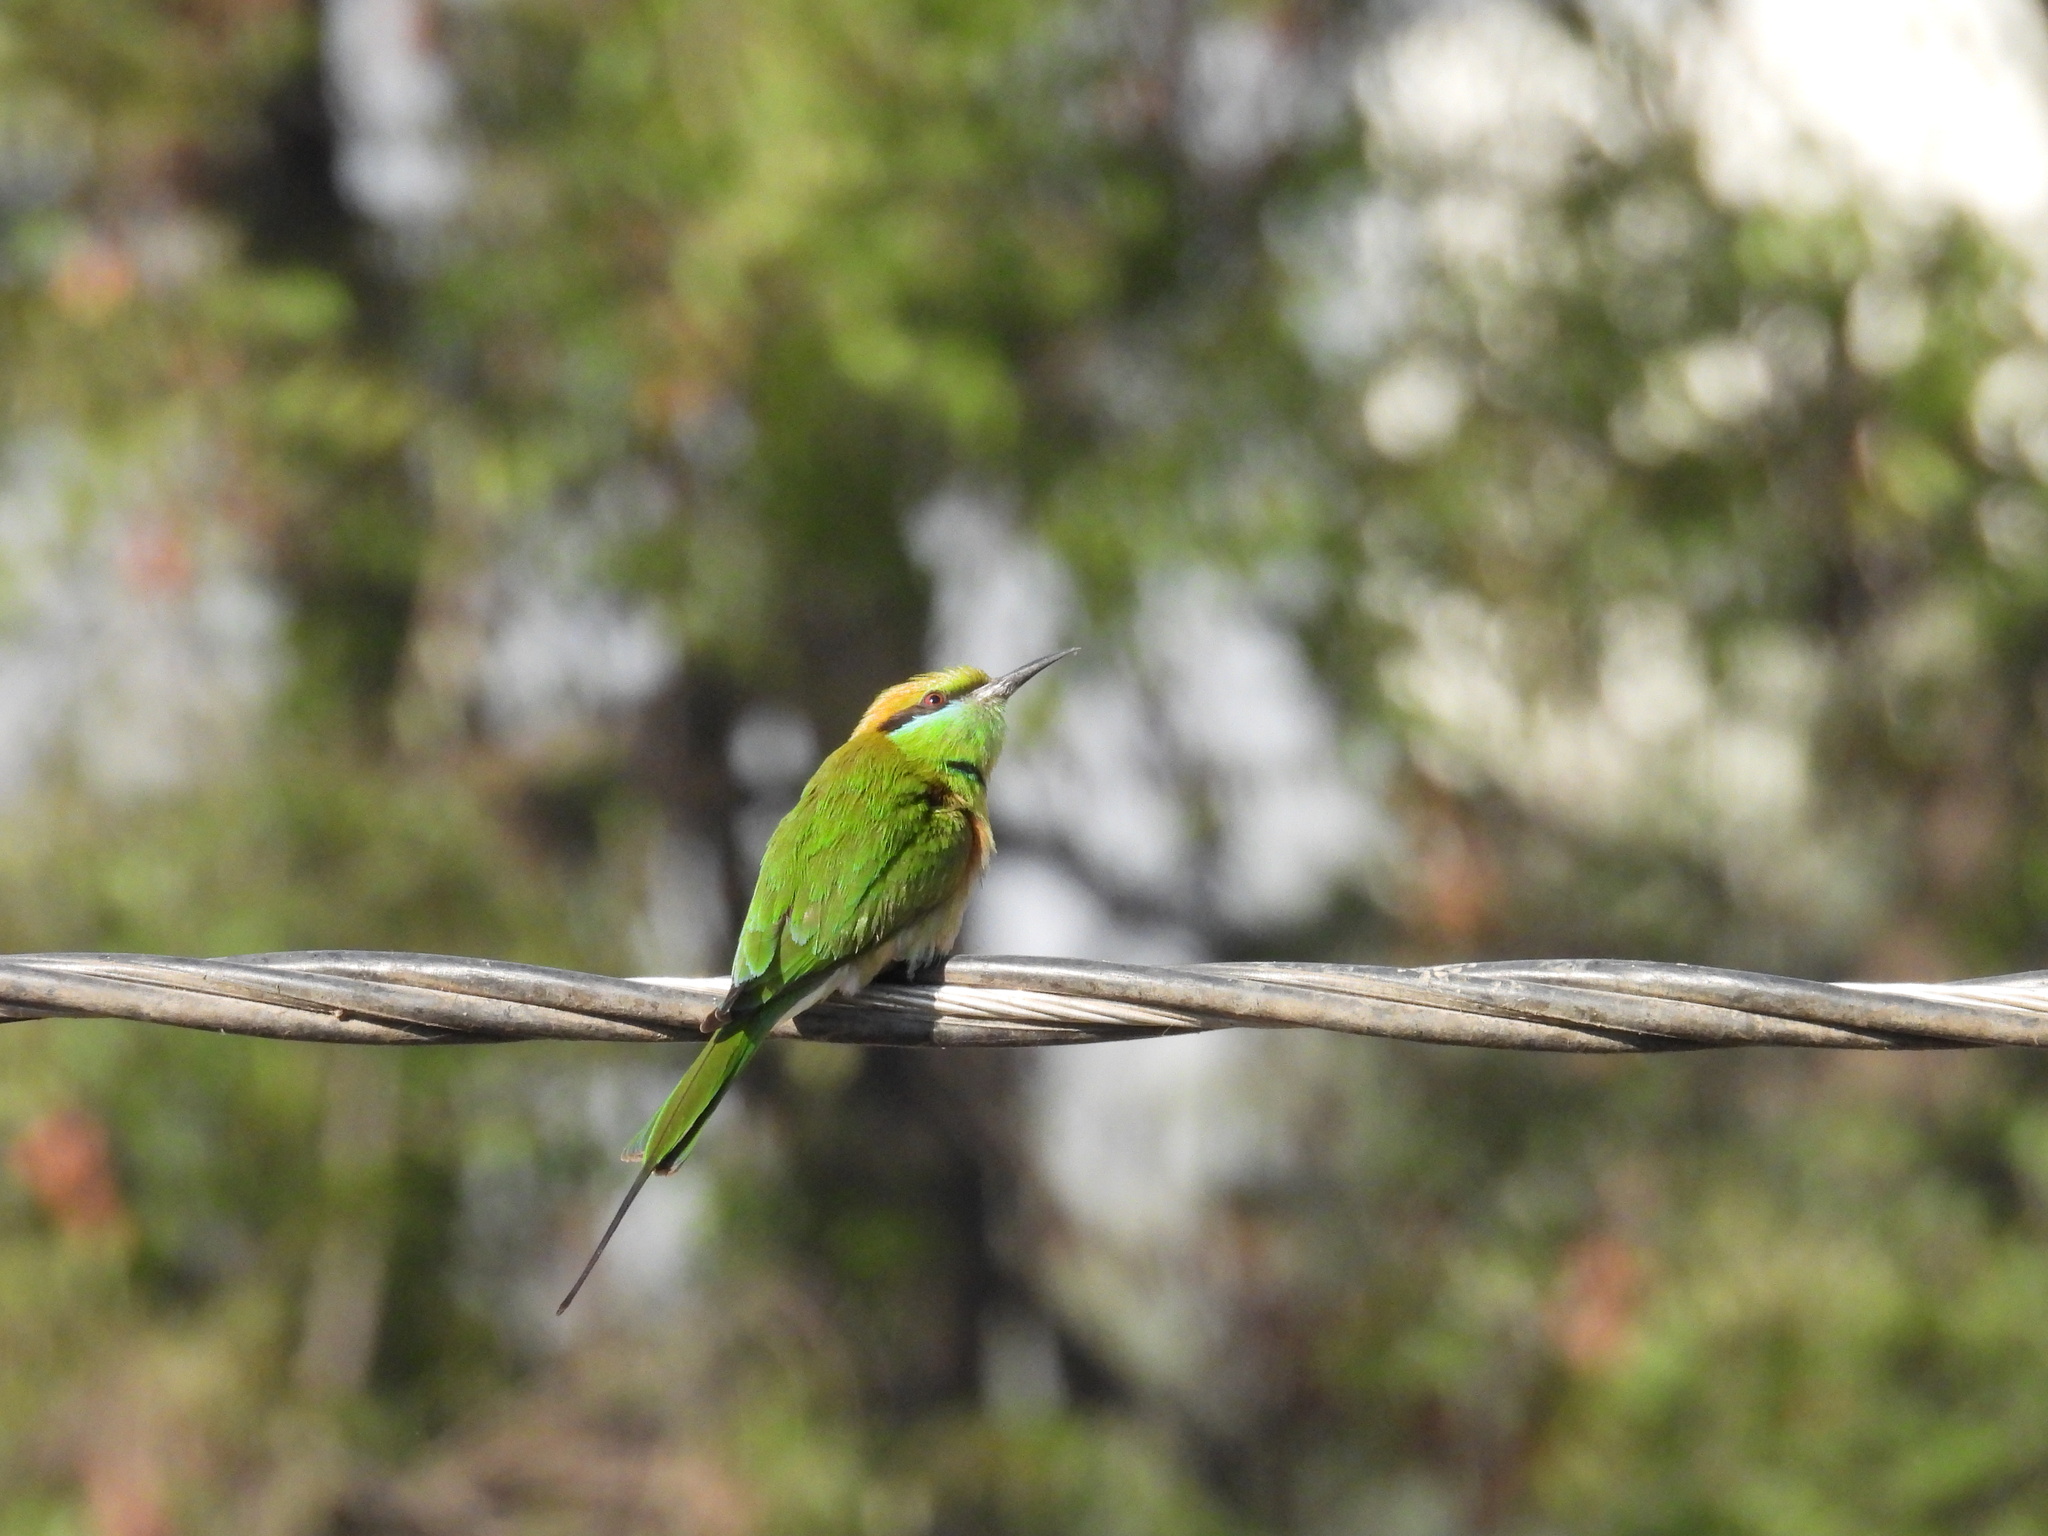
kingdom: Animalia
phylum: Chordata
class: Aves
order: Coraciiformes
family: Meropidae
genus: Merops
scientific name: Merops orientalis
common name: Green bee-eater
